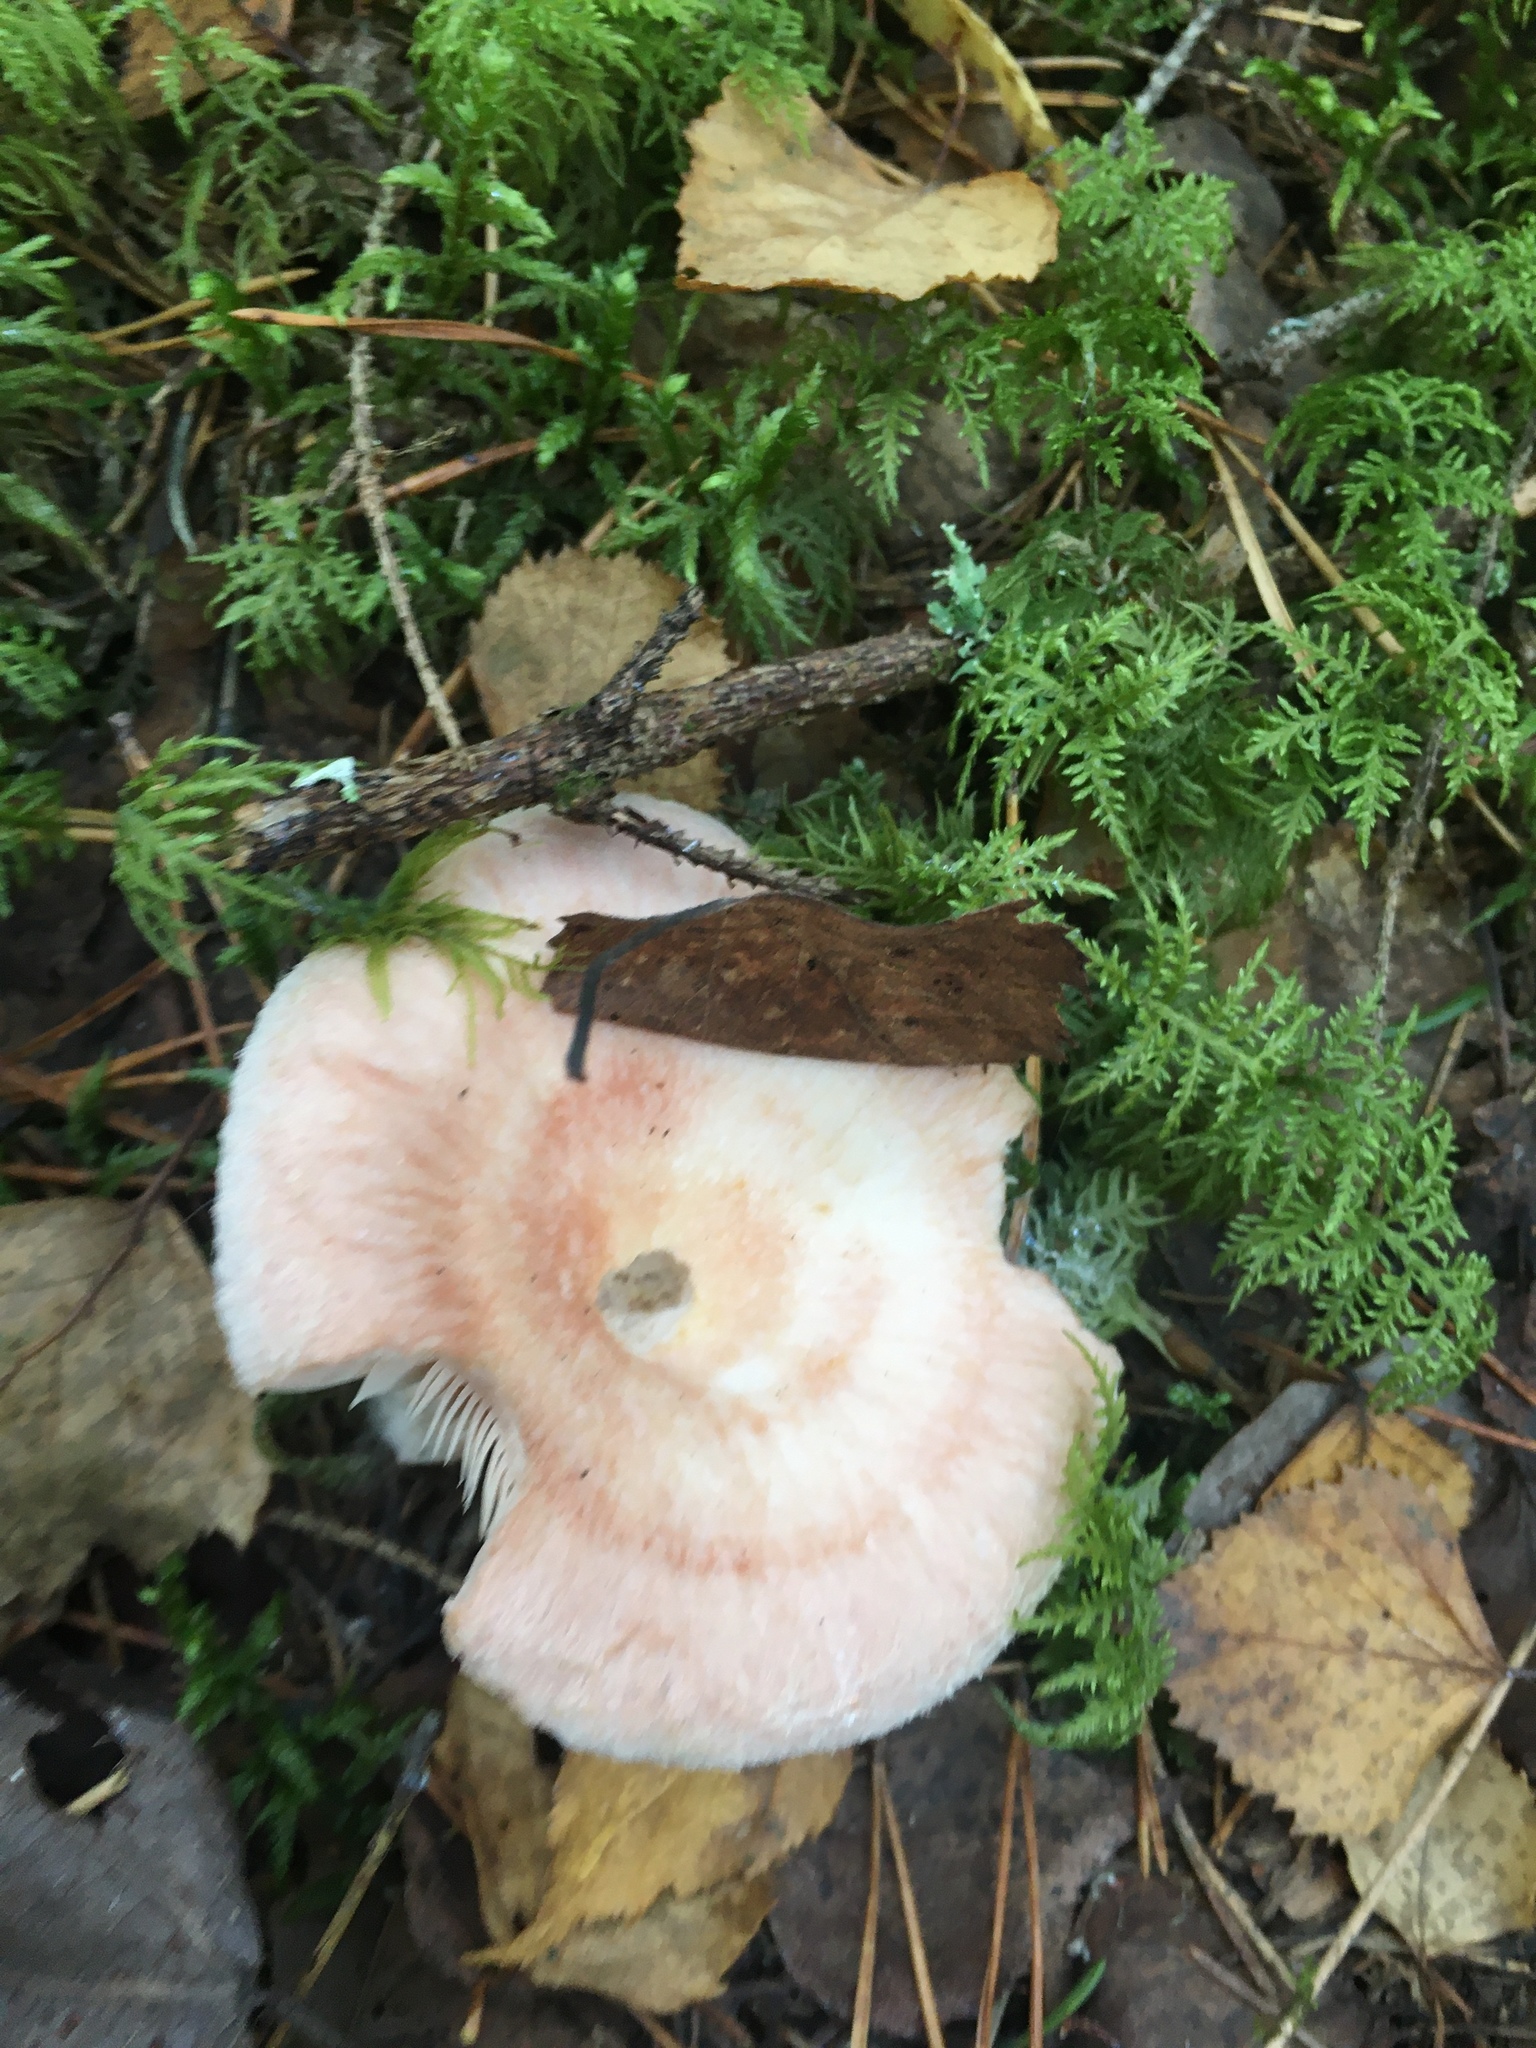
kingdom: Fungi
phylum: Basidiomycota
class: Agaricomycetes
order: Russulales
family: Russulaceae
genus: Lactarius
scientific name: Lactarius pubescens
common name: Bearded milkcap
